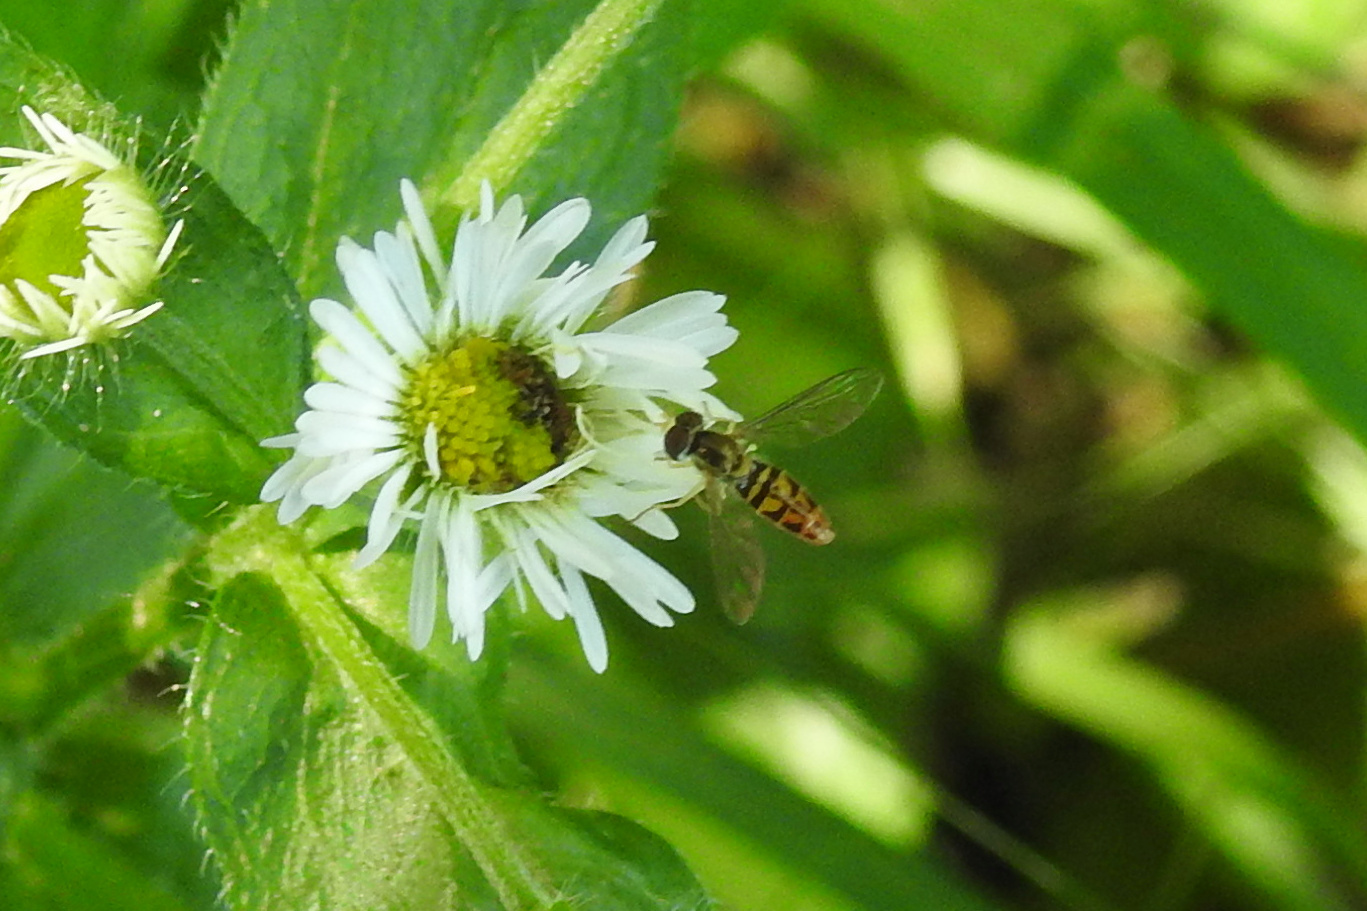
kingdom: Animalia
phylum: Arthropoda
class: Insecta
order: Diptera
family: Syrphidae
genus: Toxomerus
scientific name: Toxomerus marginatus
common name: Syrphid fly
